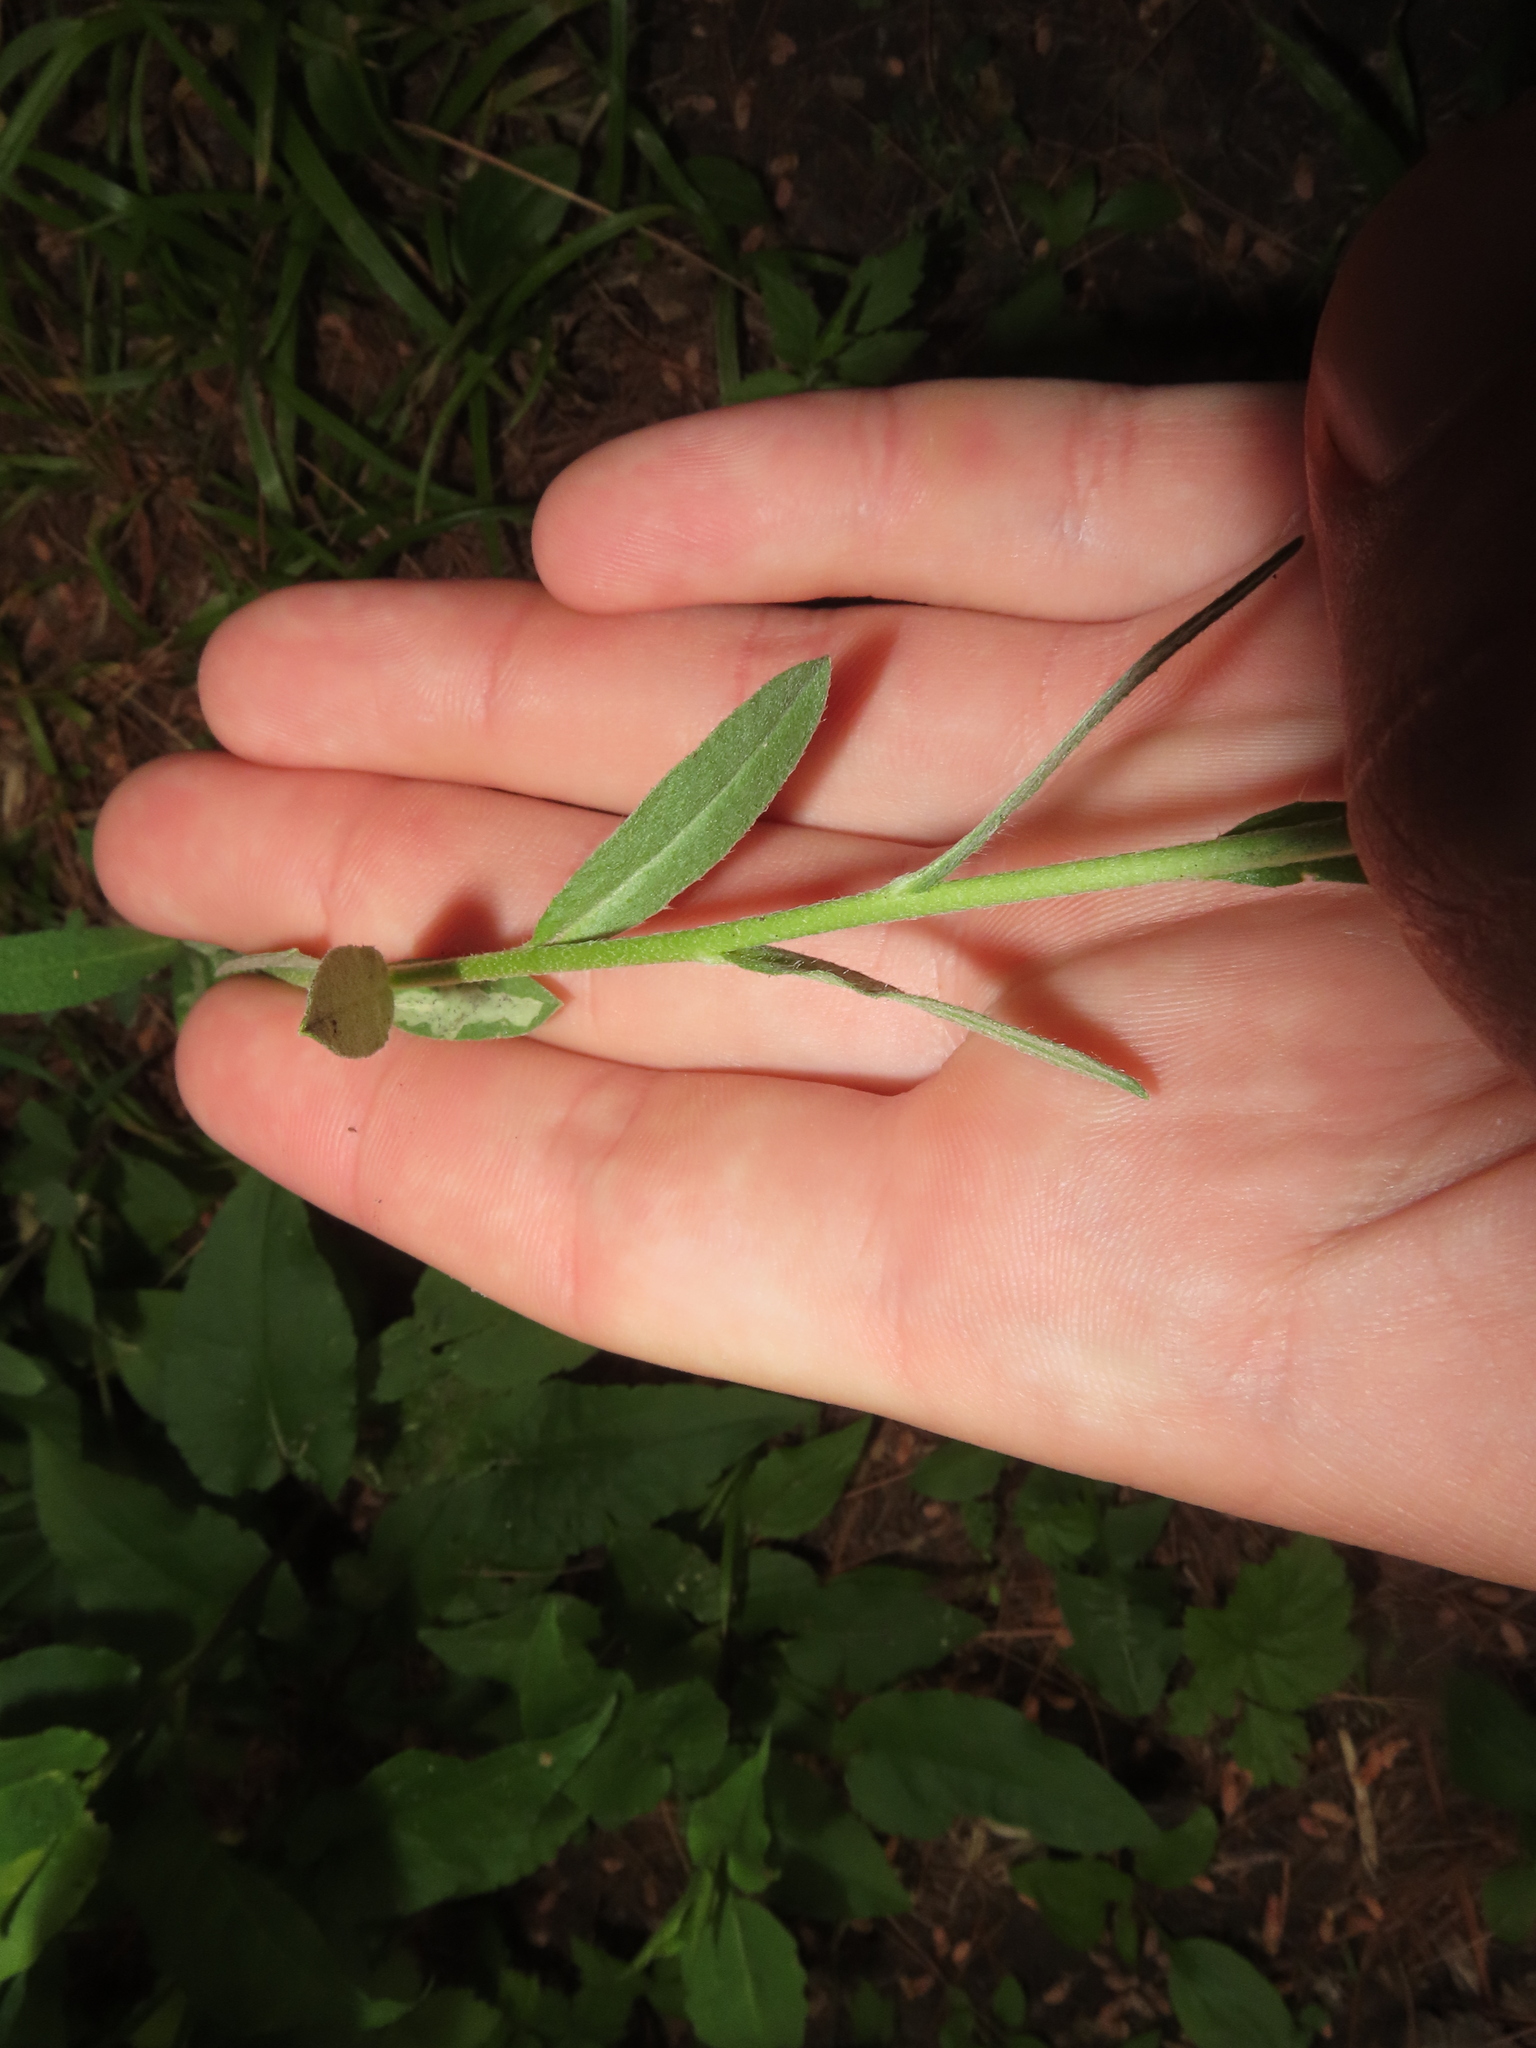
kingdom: Plantae
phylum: Tracheophyta
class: Magnoliopsida
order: Brassicales
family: Brassicaceae
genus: Berteroa
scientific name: Berteroa incana
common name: Hoary alison
